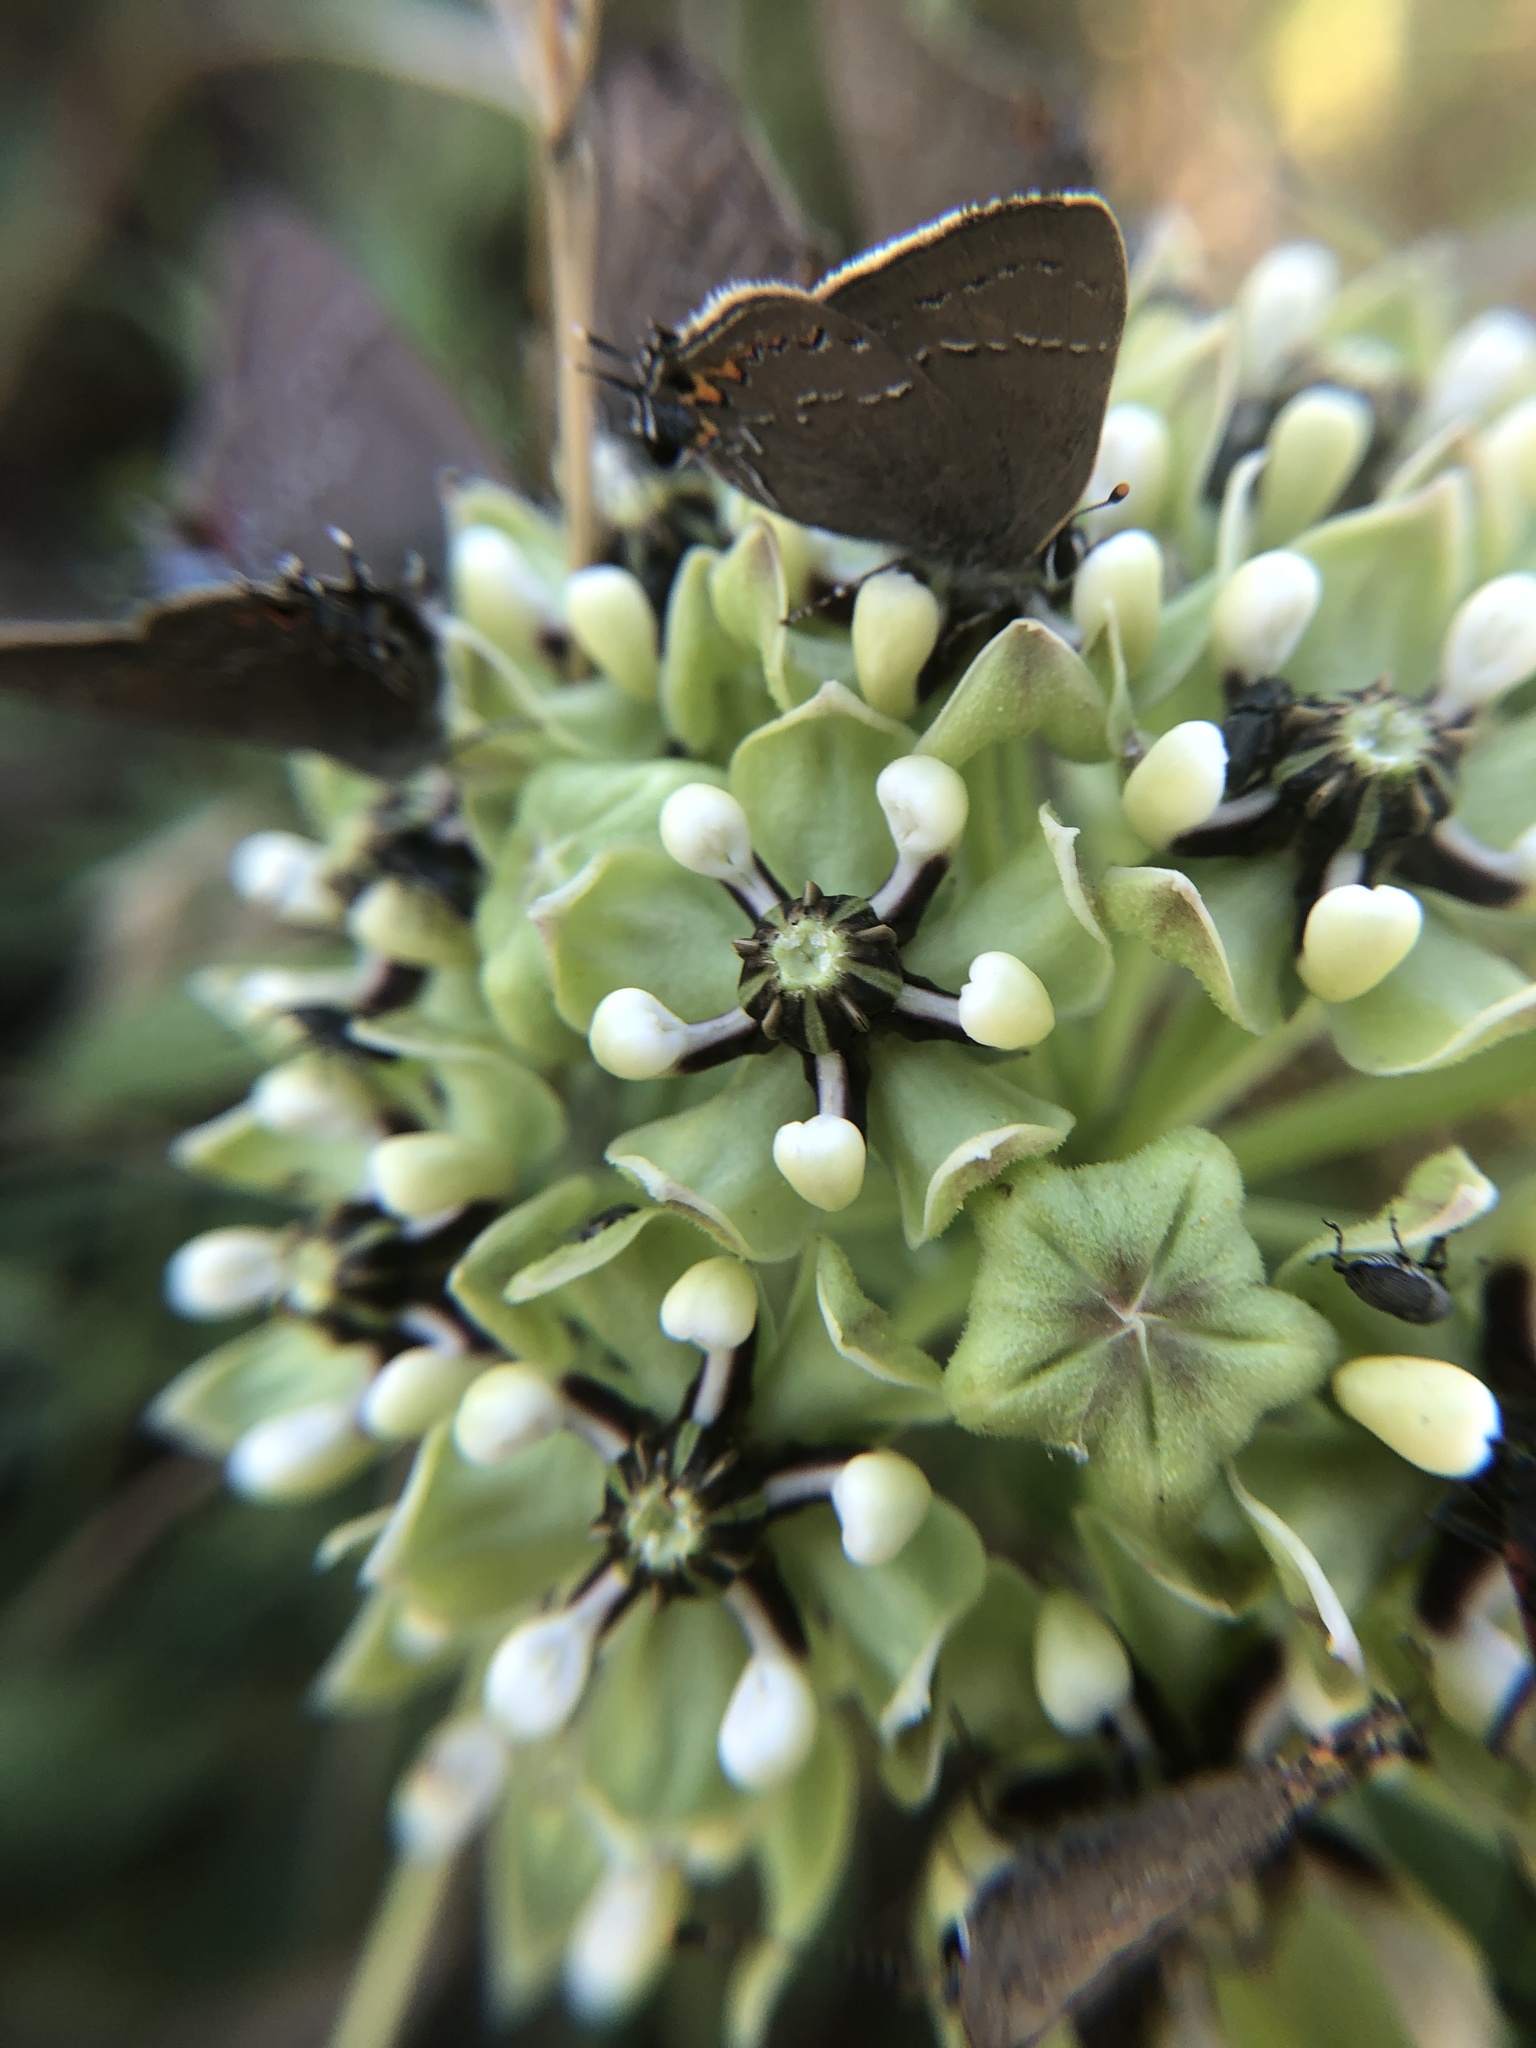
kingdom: Animalia
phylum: Arthropoda
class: Insecta
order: Lepidoptera
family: Lycaenidae
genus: Fixsenia
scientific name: Fixsenia favonius
